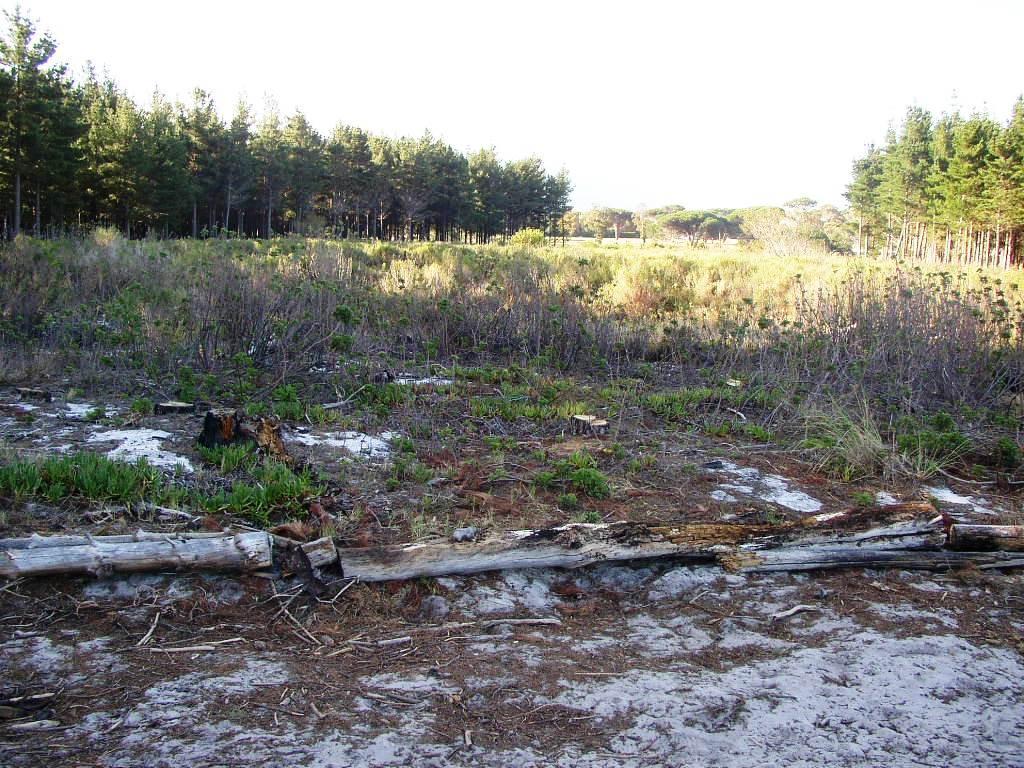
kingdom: Plantae
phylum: Tracheophyta
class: Magnoliopsida
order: Caryophyllales
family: Aizoaceae
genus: Carpobrotus
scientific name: Carpobrotus edulis
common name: Hottentot-fig
